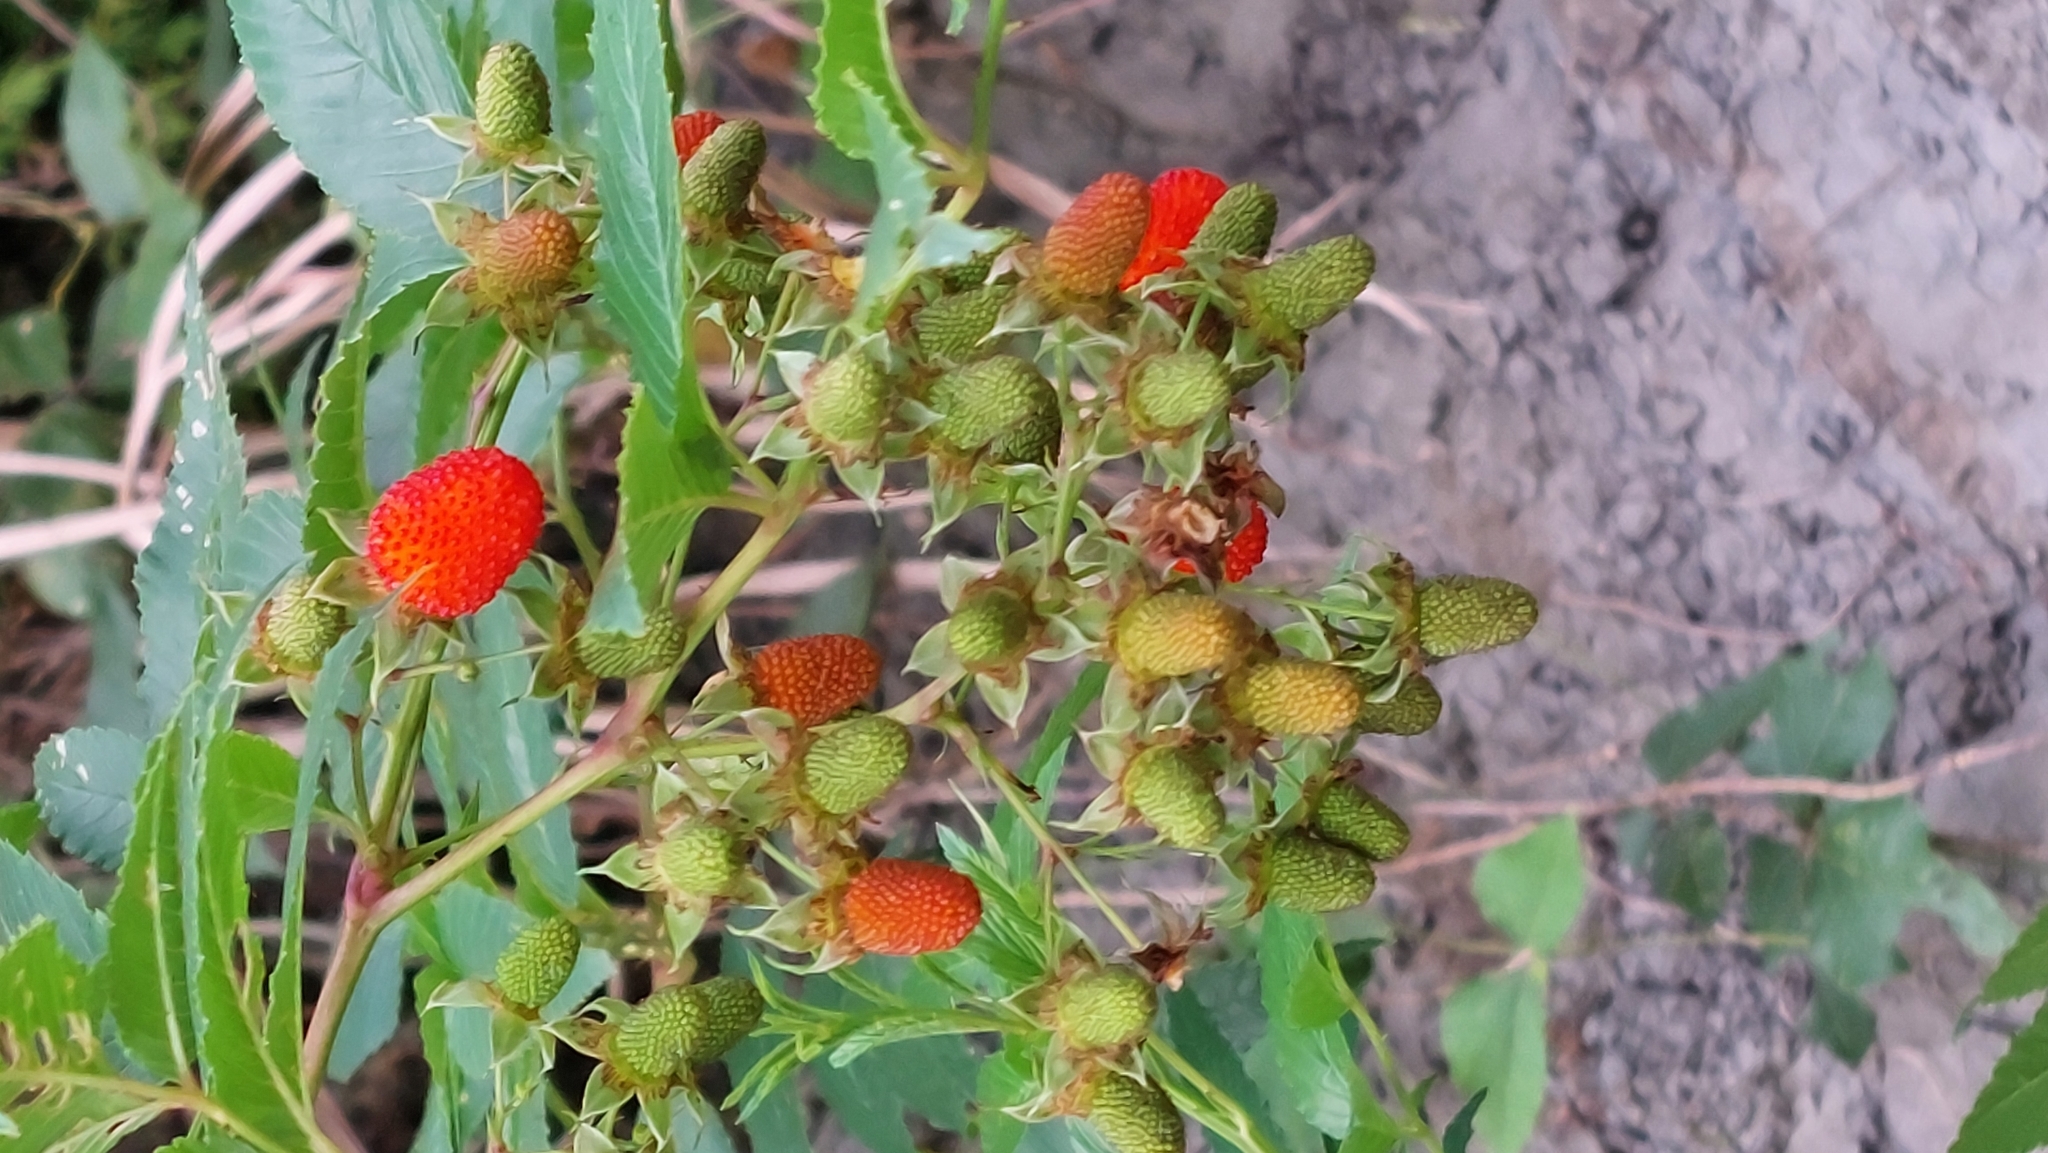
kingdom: Plantae
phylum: Tracheophyta
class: Magnoliopsida
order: Rosales
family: Rosaceae
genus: Rubus
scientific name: Rubus fraxinifolius
